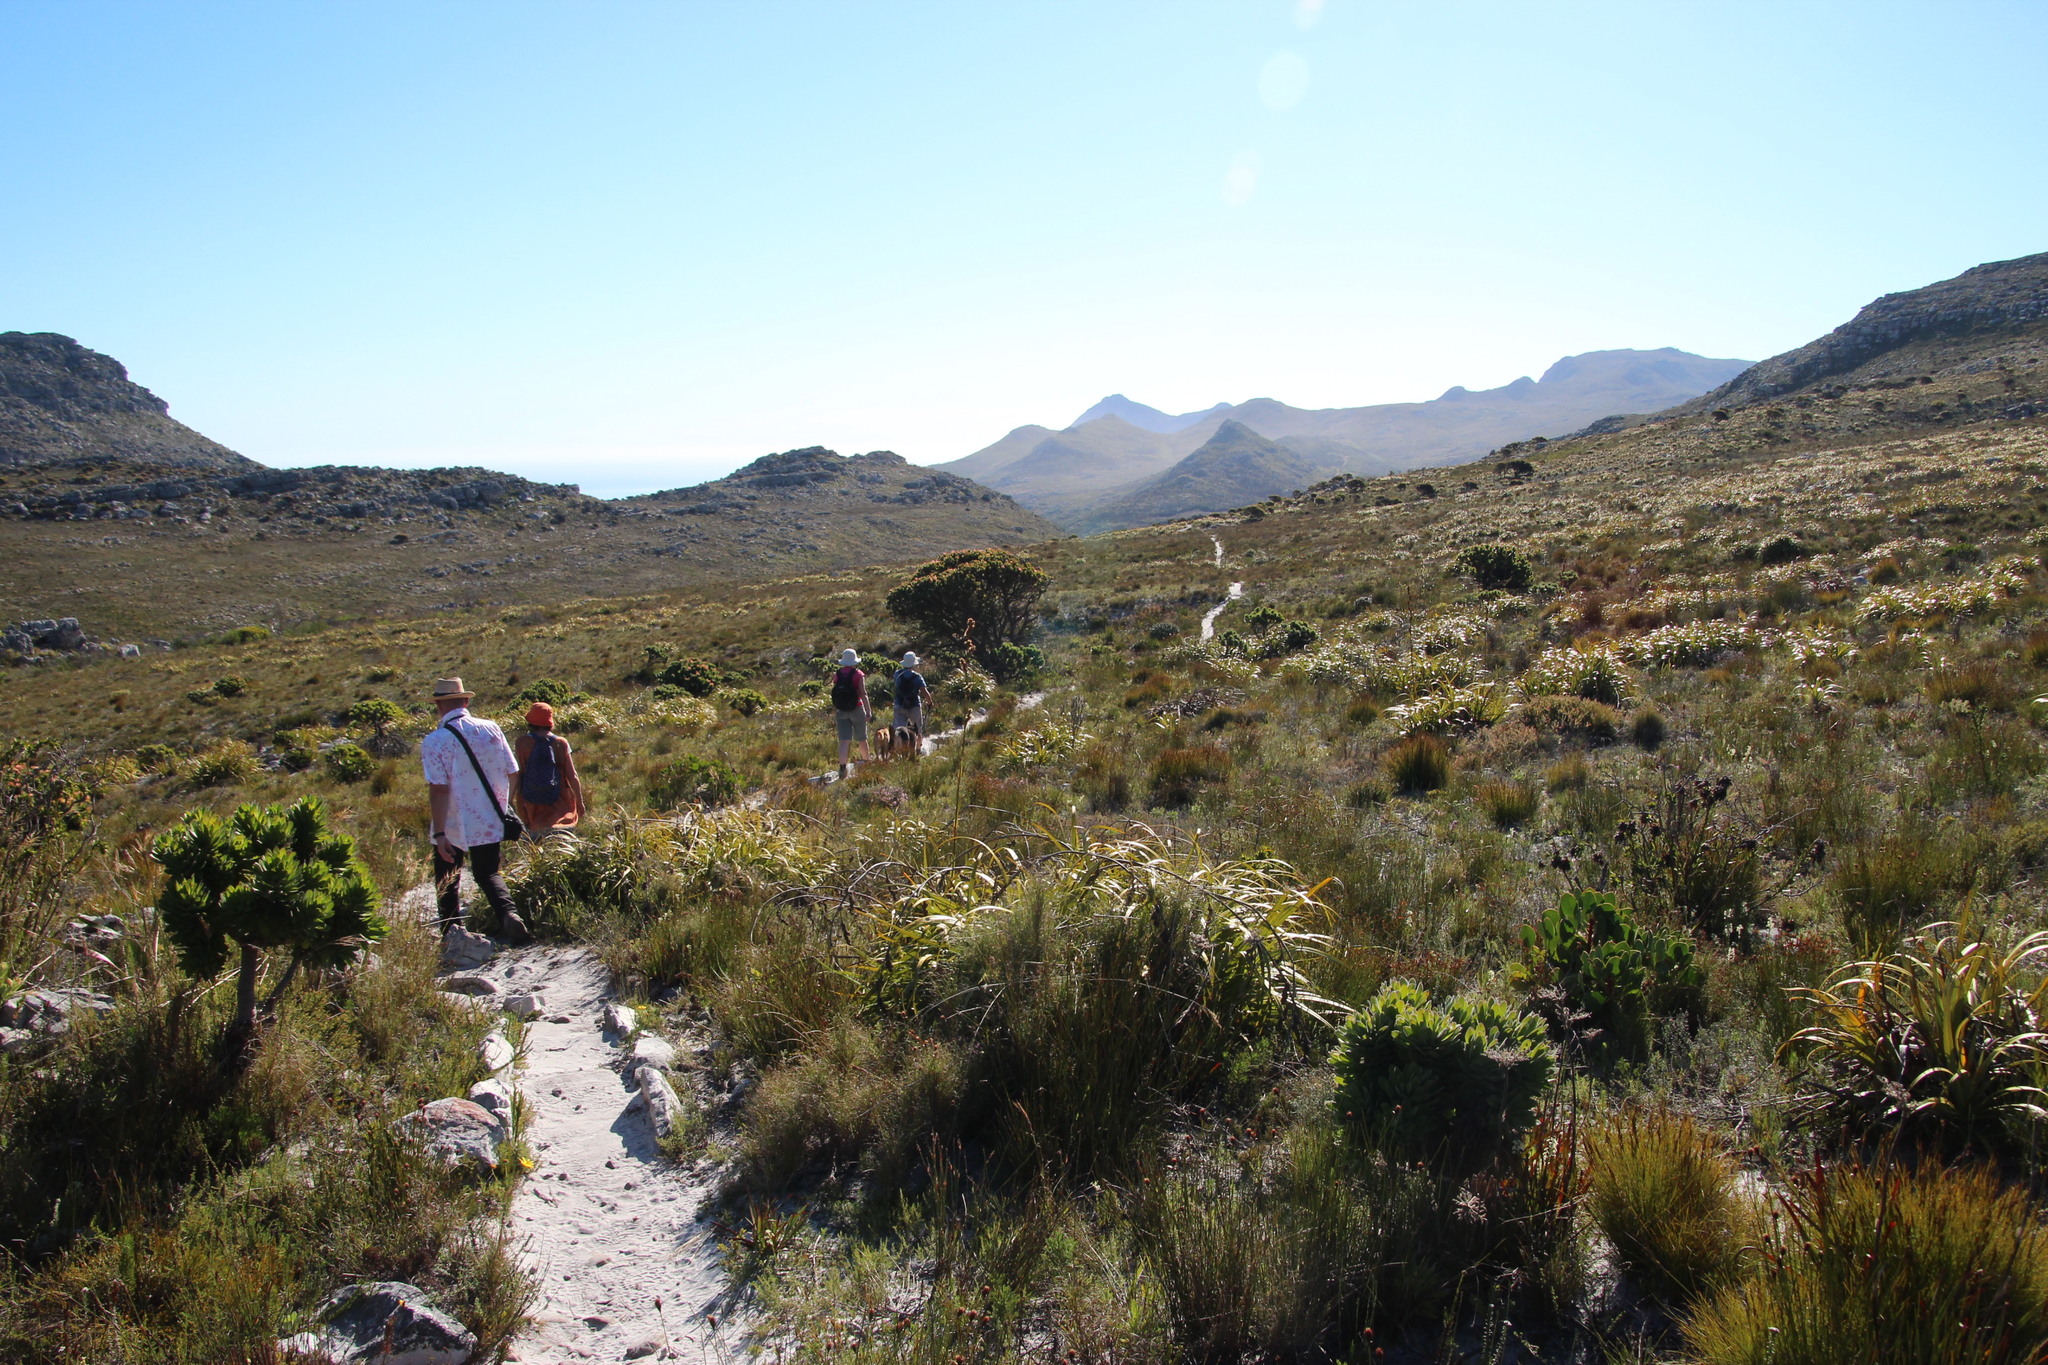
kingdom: Plantae
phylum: Tracheophyta
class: Magnoliopsida
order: Proteales
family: Proteaceae
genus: Mimetes
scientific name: Mimetes fimbriifolius
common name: Fringed bottlebrush
